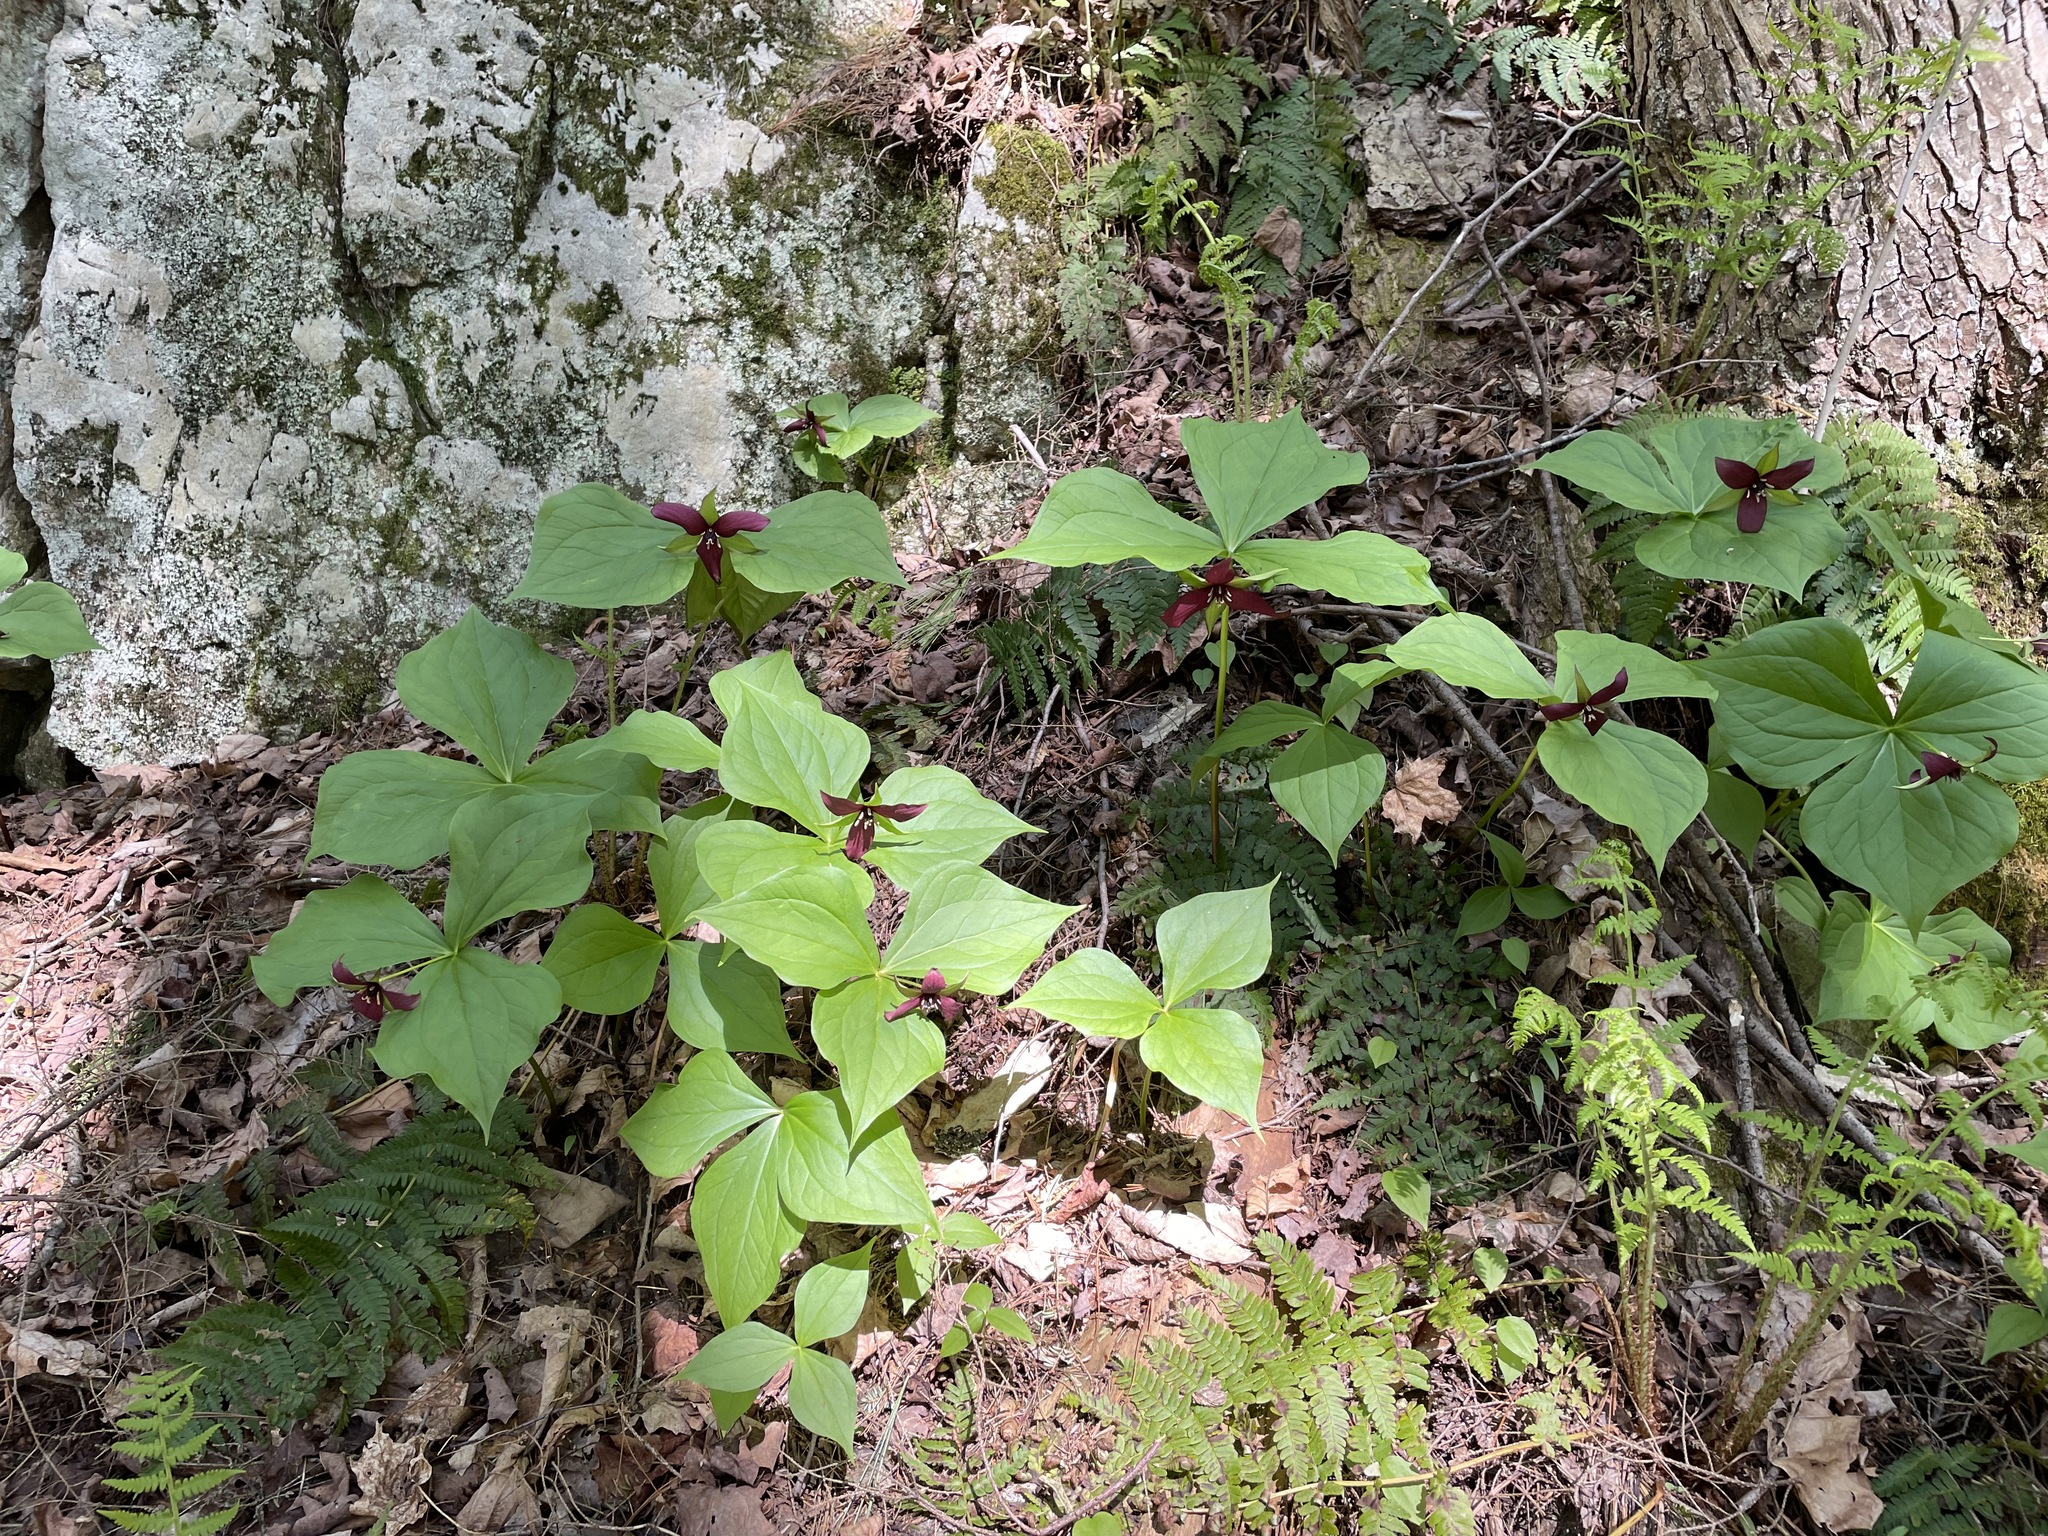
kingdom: Plantae
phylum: Tracheophyta
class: Liliopsida
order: Liliales
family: Melanthiaceae
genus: Trillium
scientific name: Trillium erectum
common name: Purple trillium
